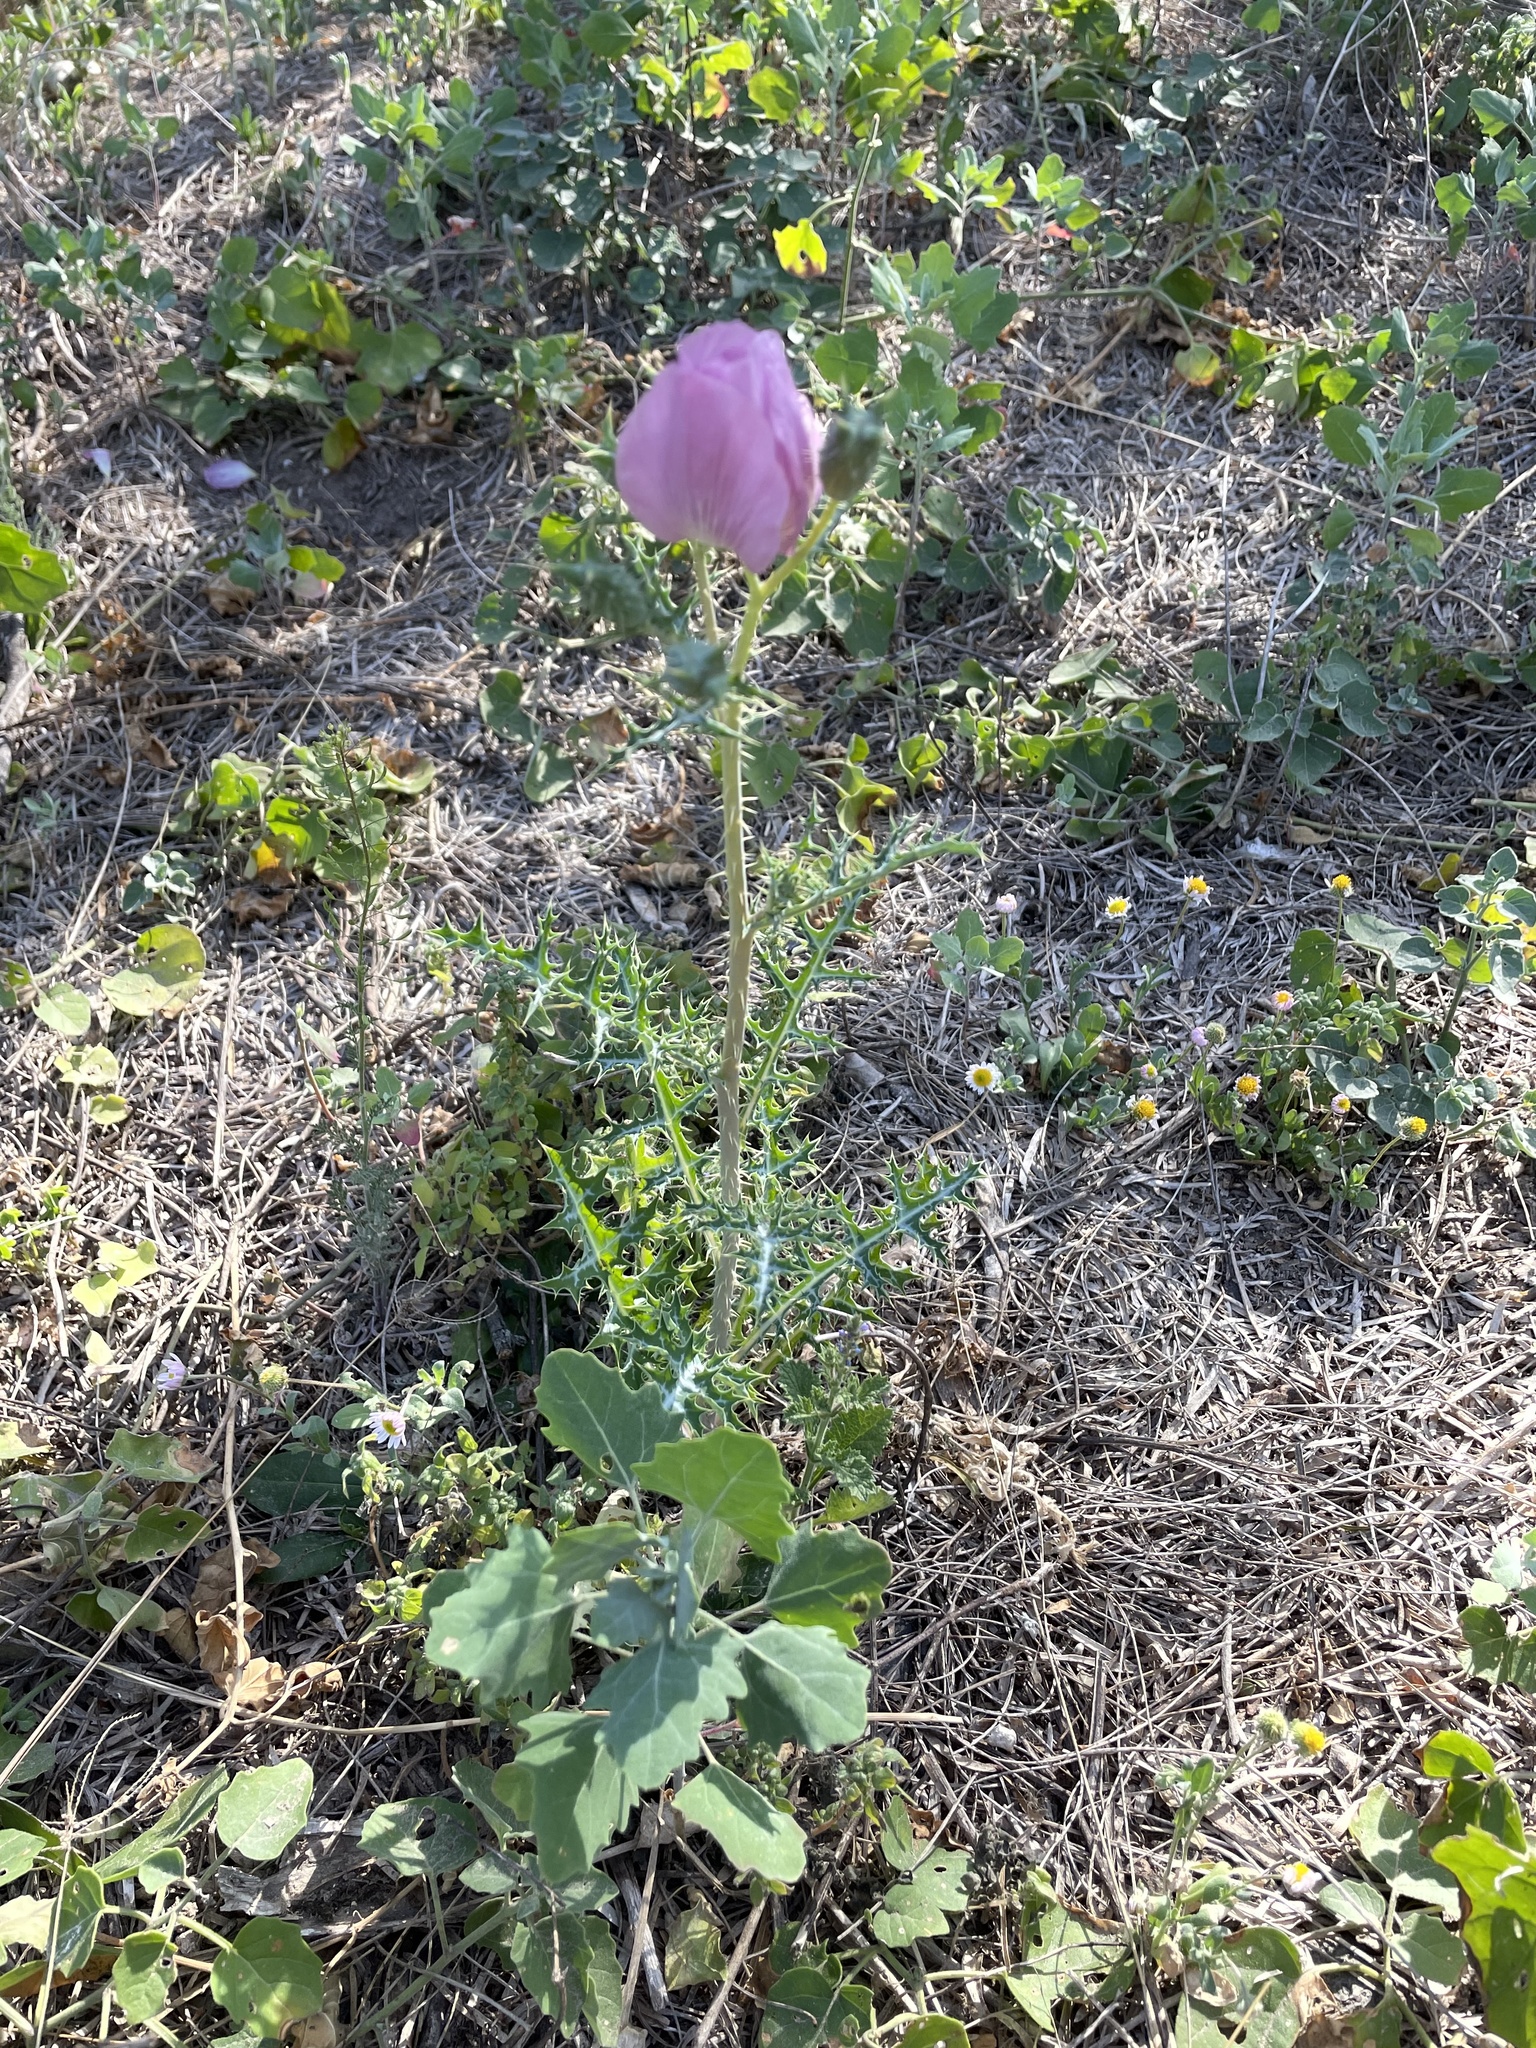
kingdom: Plantae
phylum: Tracheophyta
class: Magnoliopsida
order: Ranunculales
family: Papaveraceae
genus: Argemone
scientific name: Argemone sanguinea
